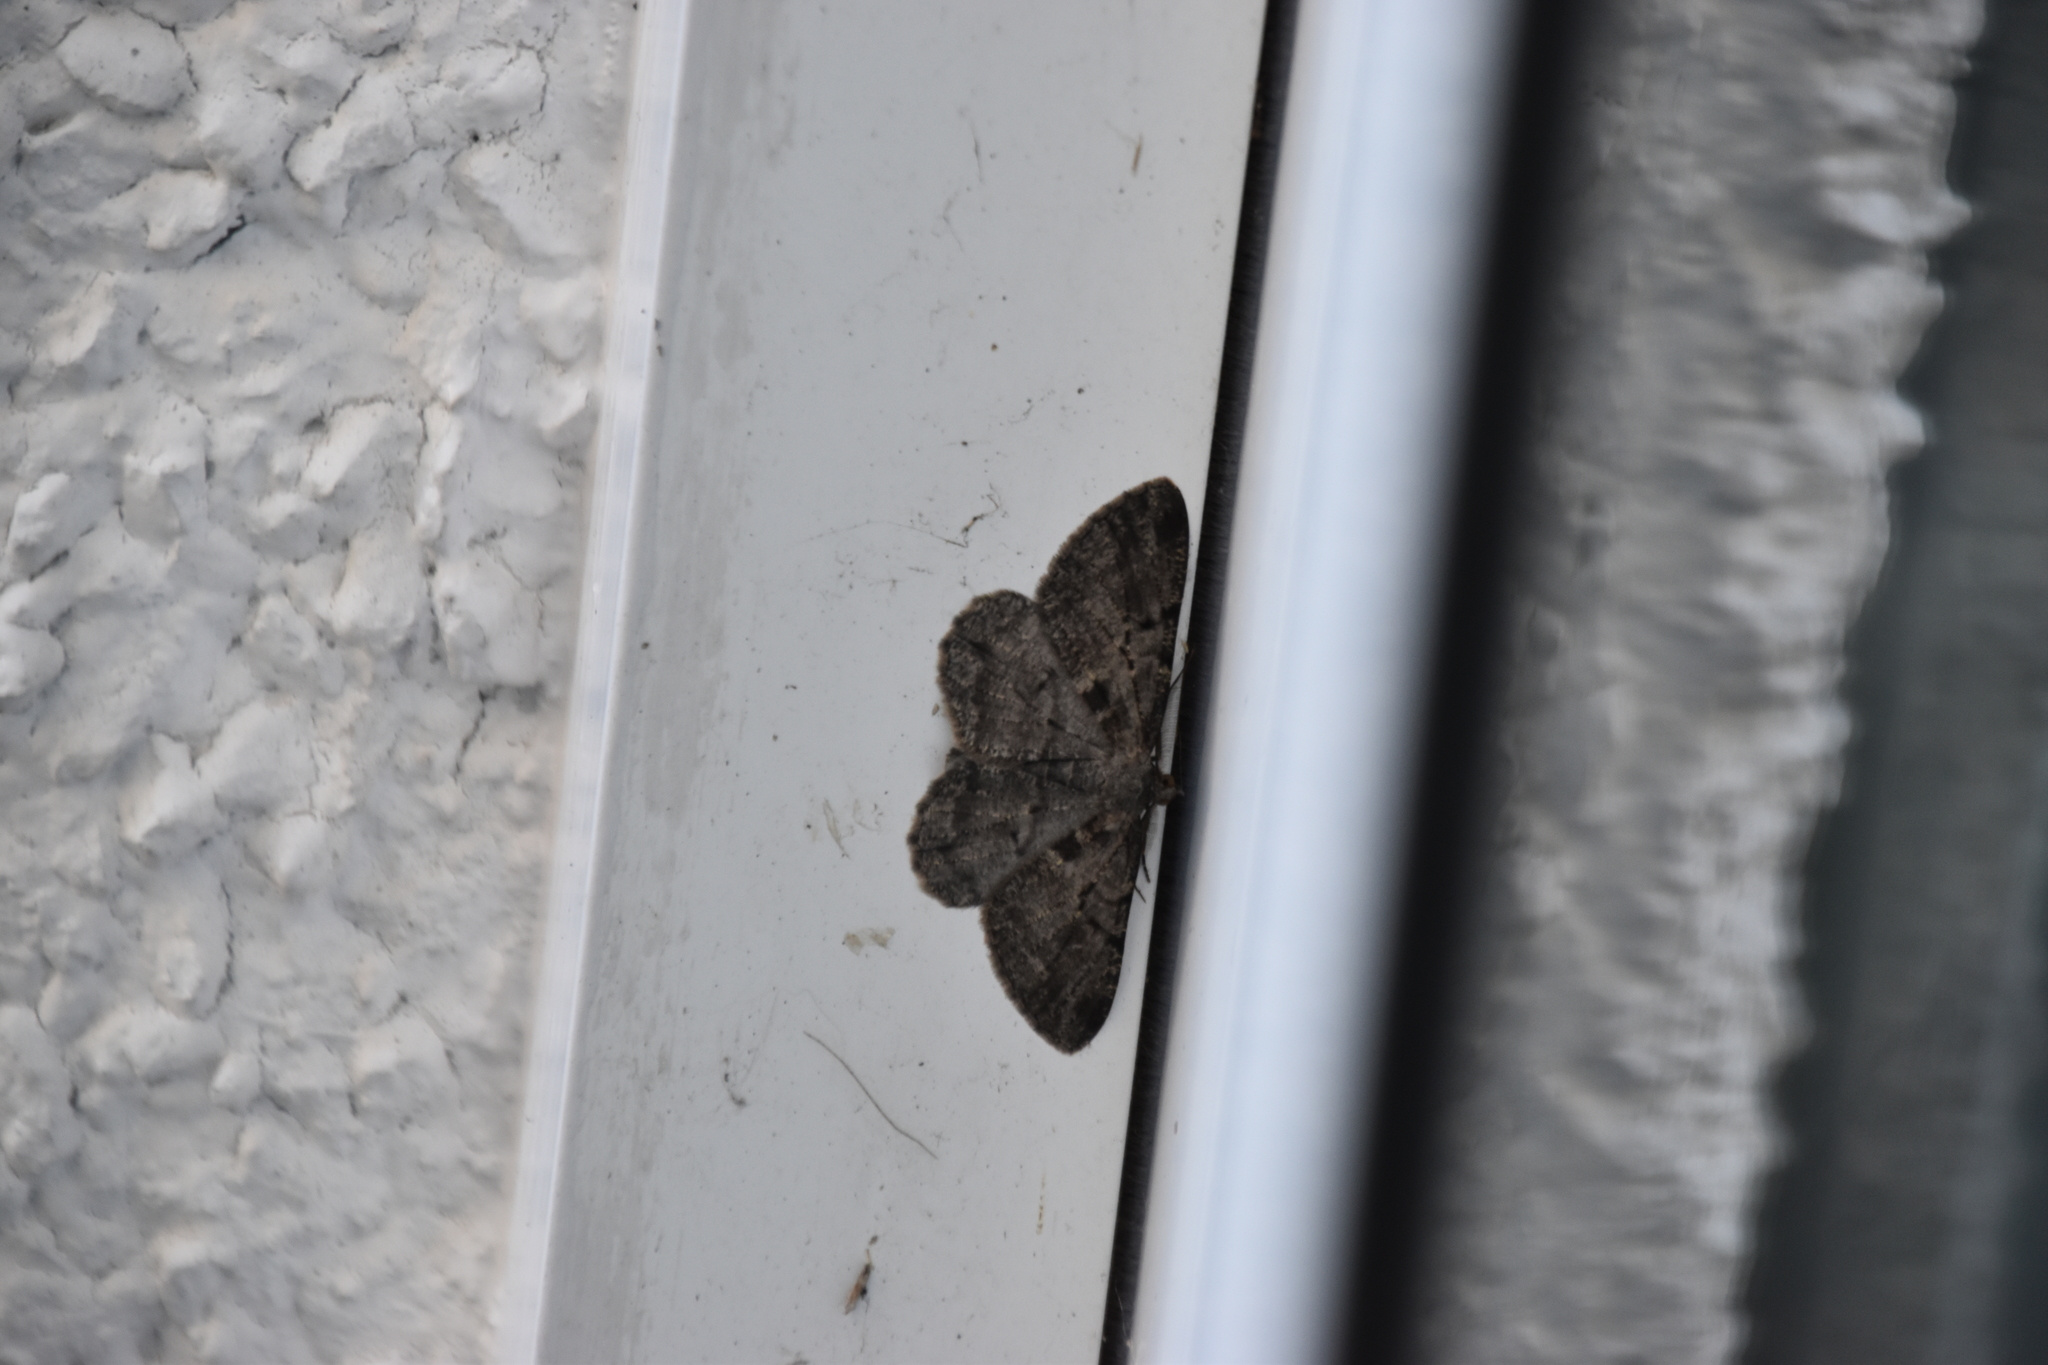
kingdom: Animalia
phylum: Arthropoda
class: Insecta
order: Lepidoptera
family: Geometridae
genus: Peribatodes
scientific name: Peribatodes rhomboidaria
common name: Willow beauty
